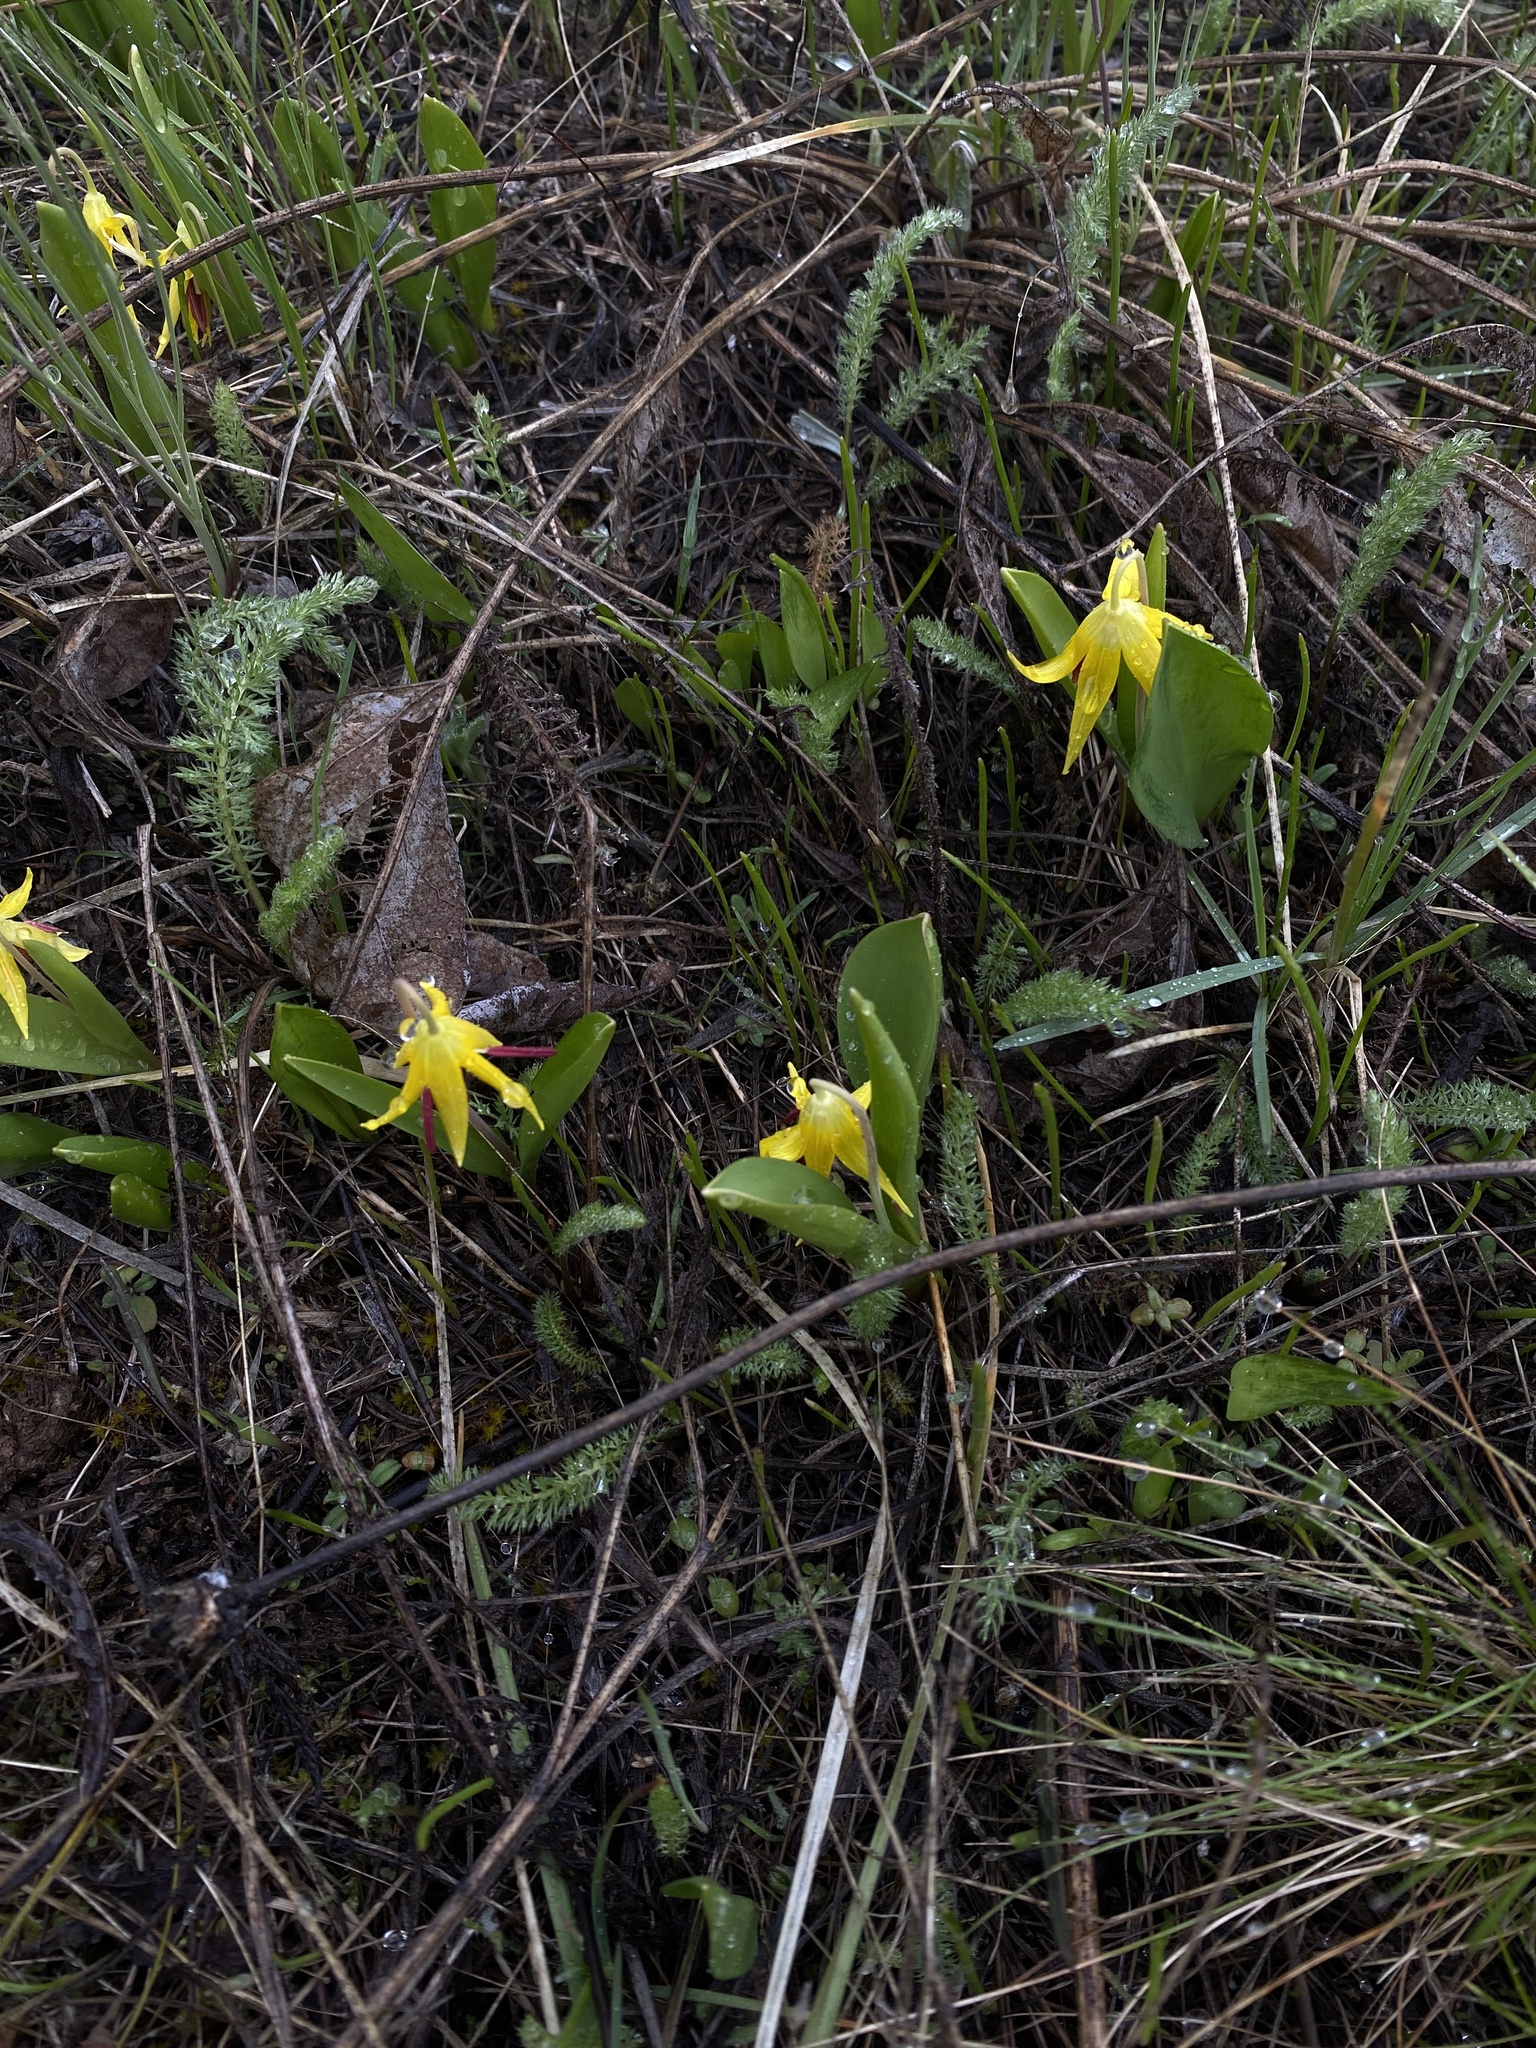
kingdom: Plantae
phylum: Tracheophyta
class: Liliopsida
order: Liliales
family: Liliaceae
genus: Erythronium
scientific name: Erythronium grandiflorum
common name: Avalanche-lily
